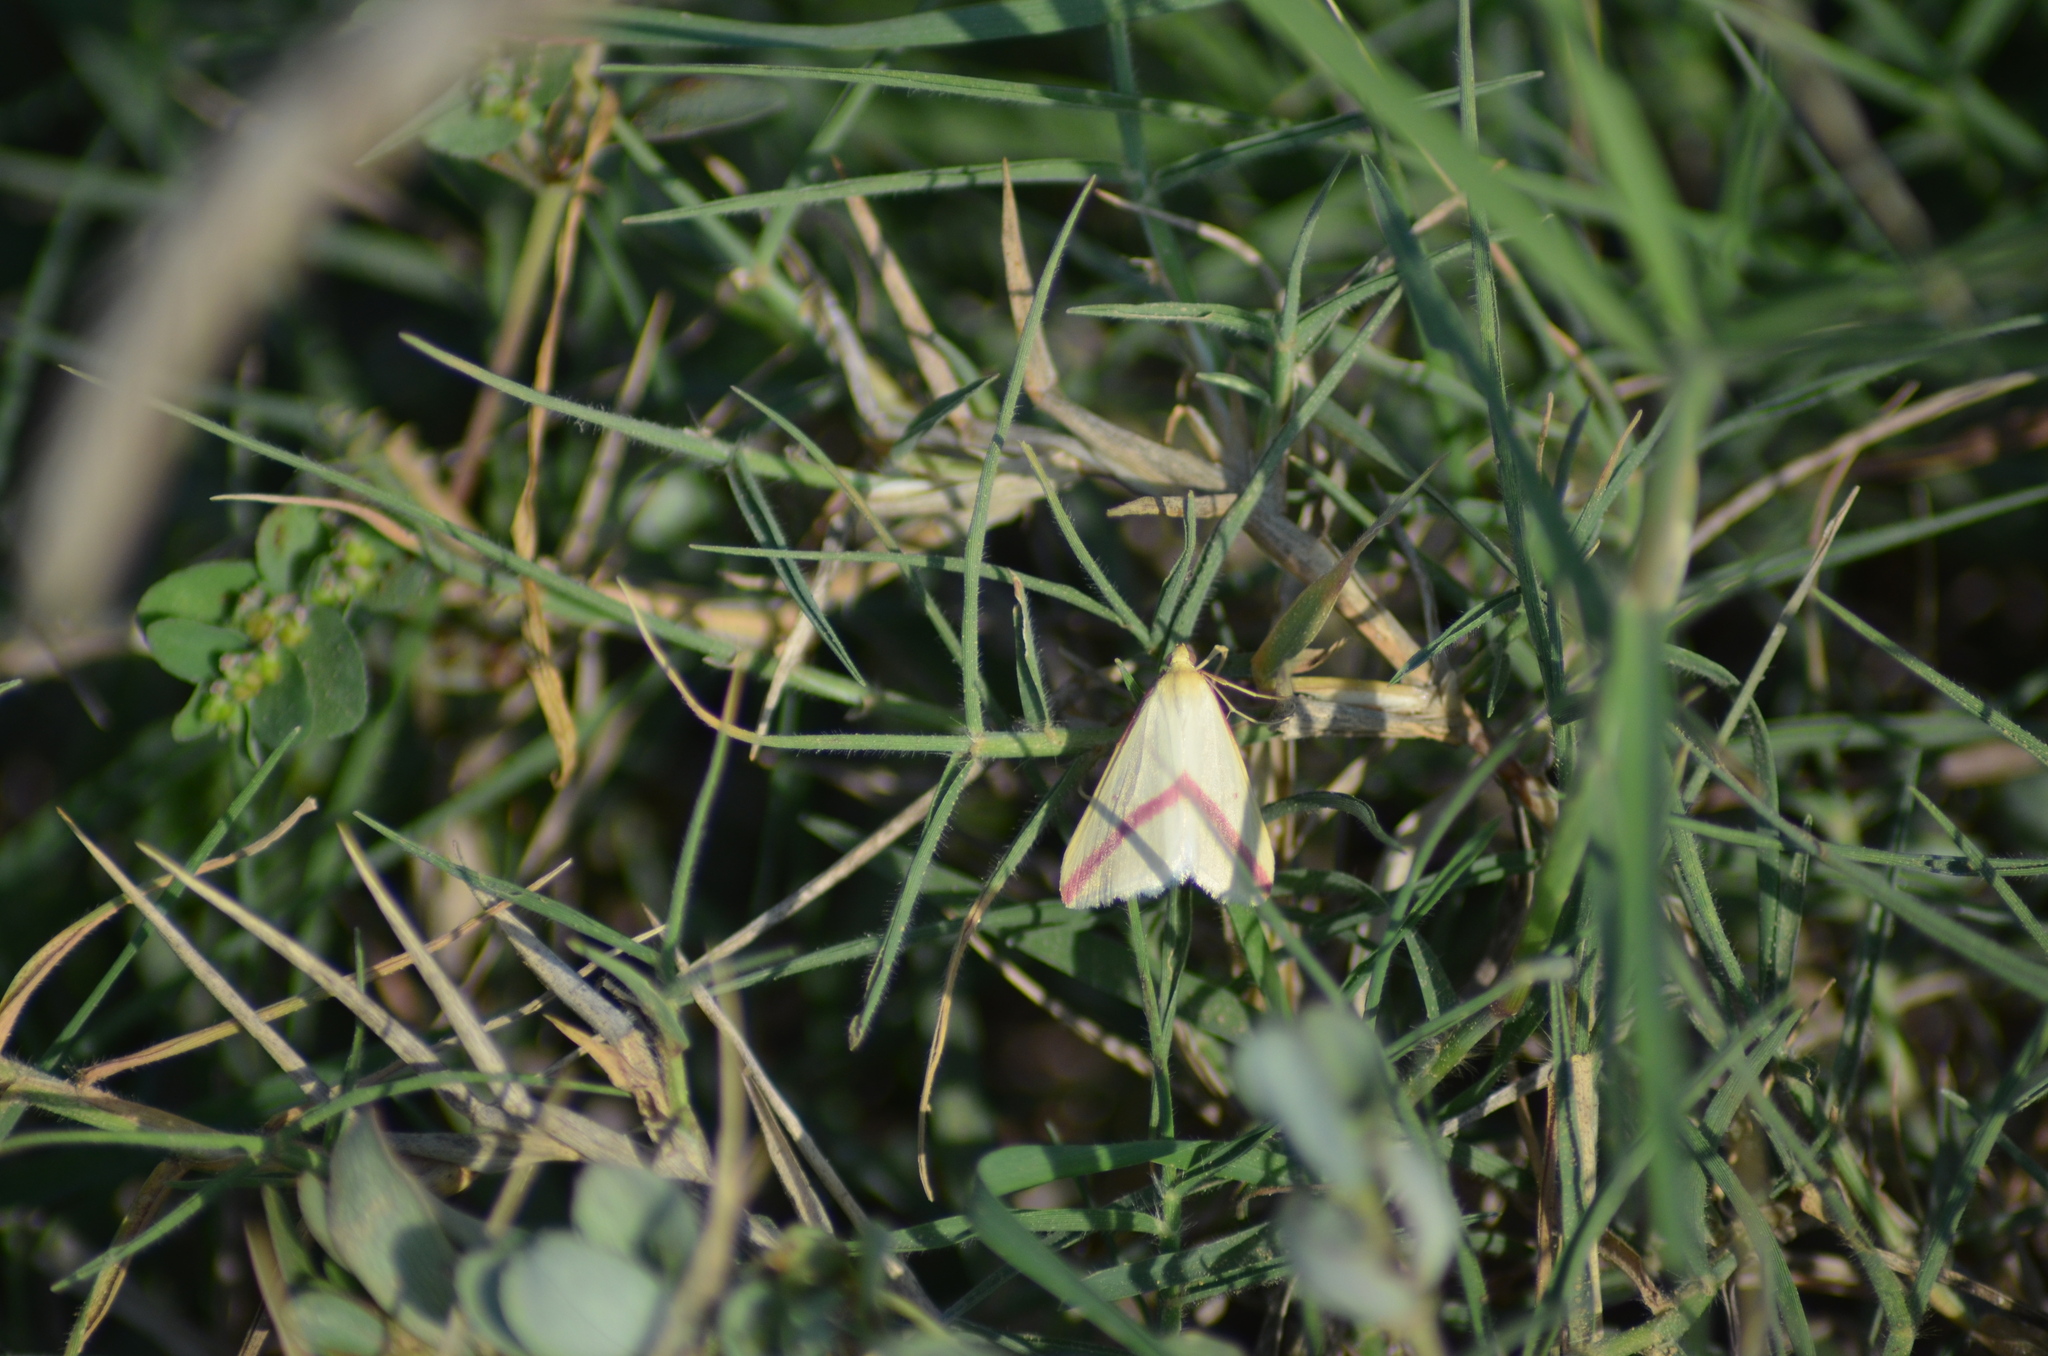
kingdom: Animalia
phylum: Arthropoda
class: Insecta
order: Lepidoptera
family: Geometridae
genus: Rhodometra
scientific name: Rhodometra sacraria
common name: Vestal
